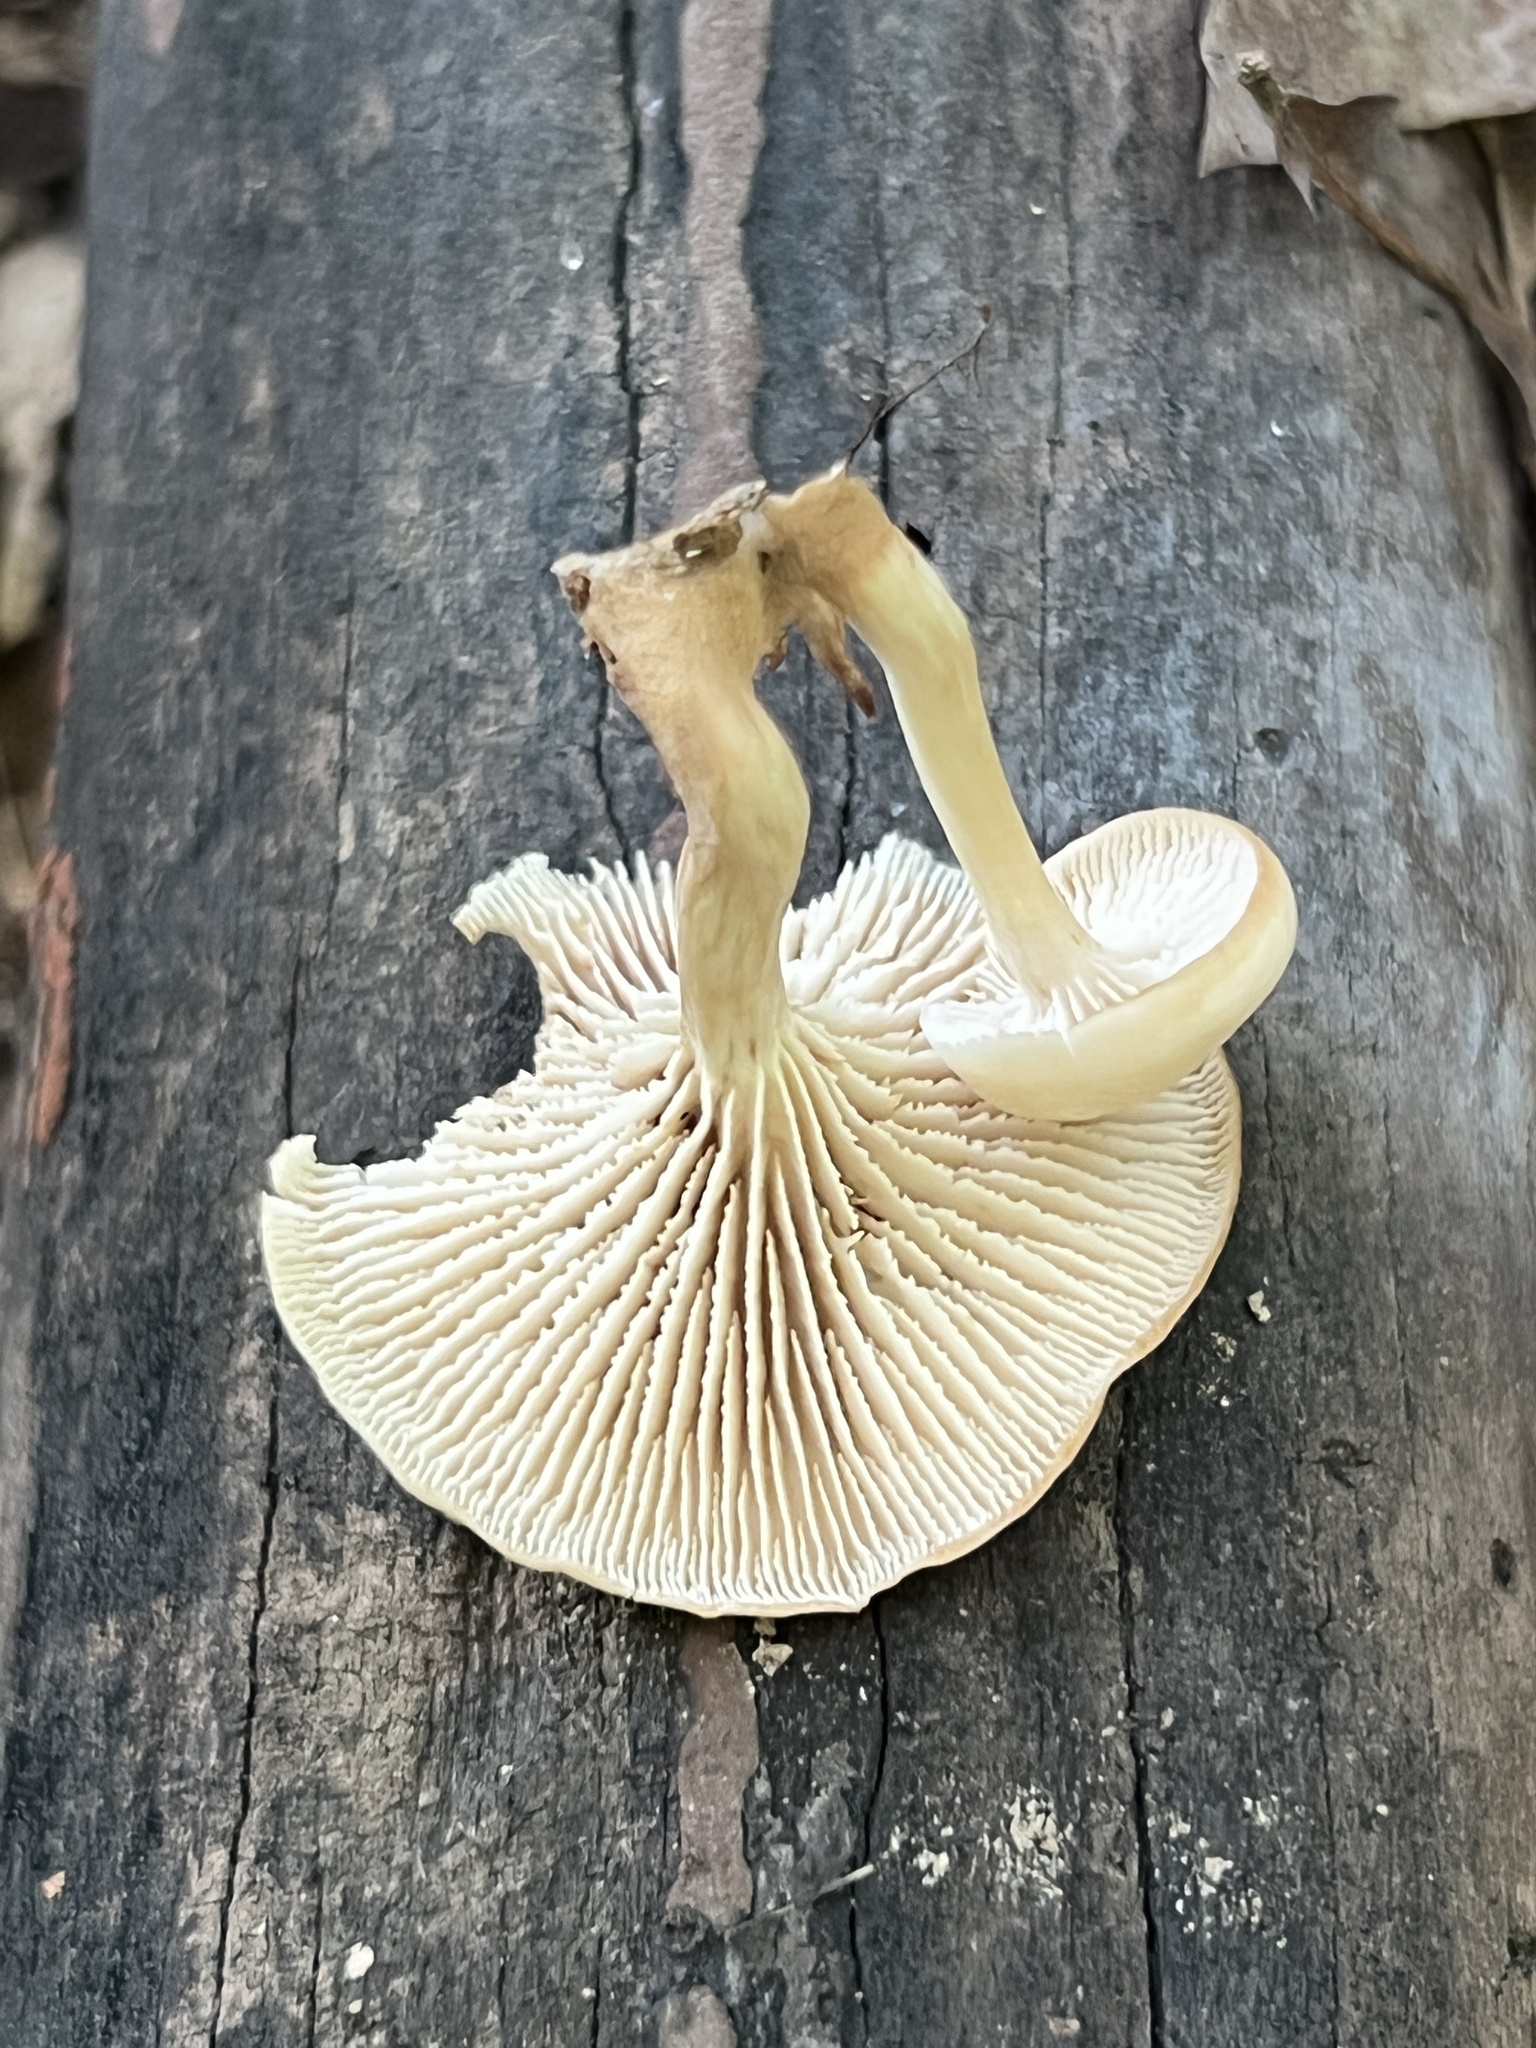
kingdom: Fungi
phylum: Basidiomycota
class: Agaricomycetes
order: Russulales
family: Auriscalpiaceae
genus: Lentinellus
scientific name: Lentinellus subaustralis
